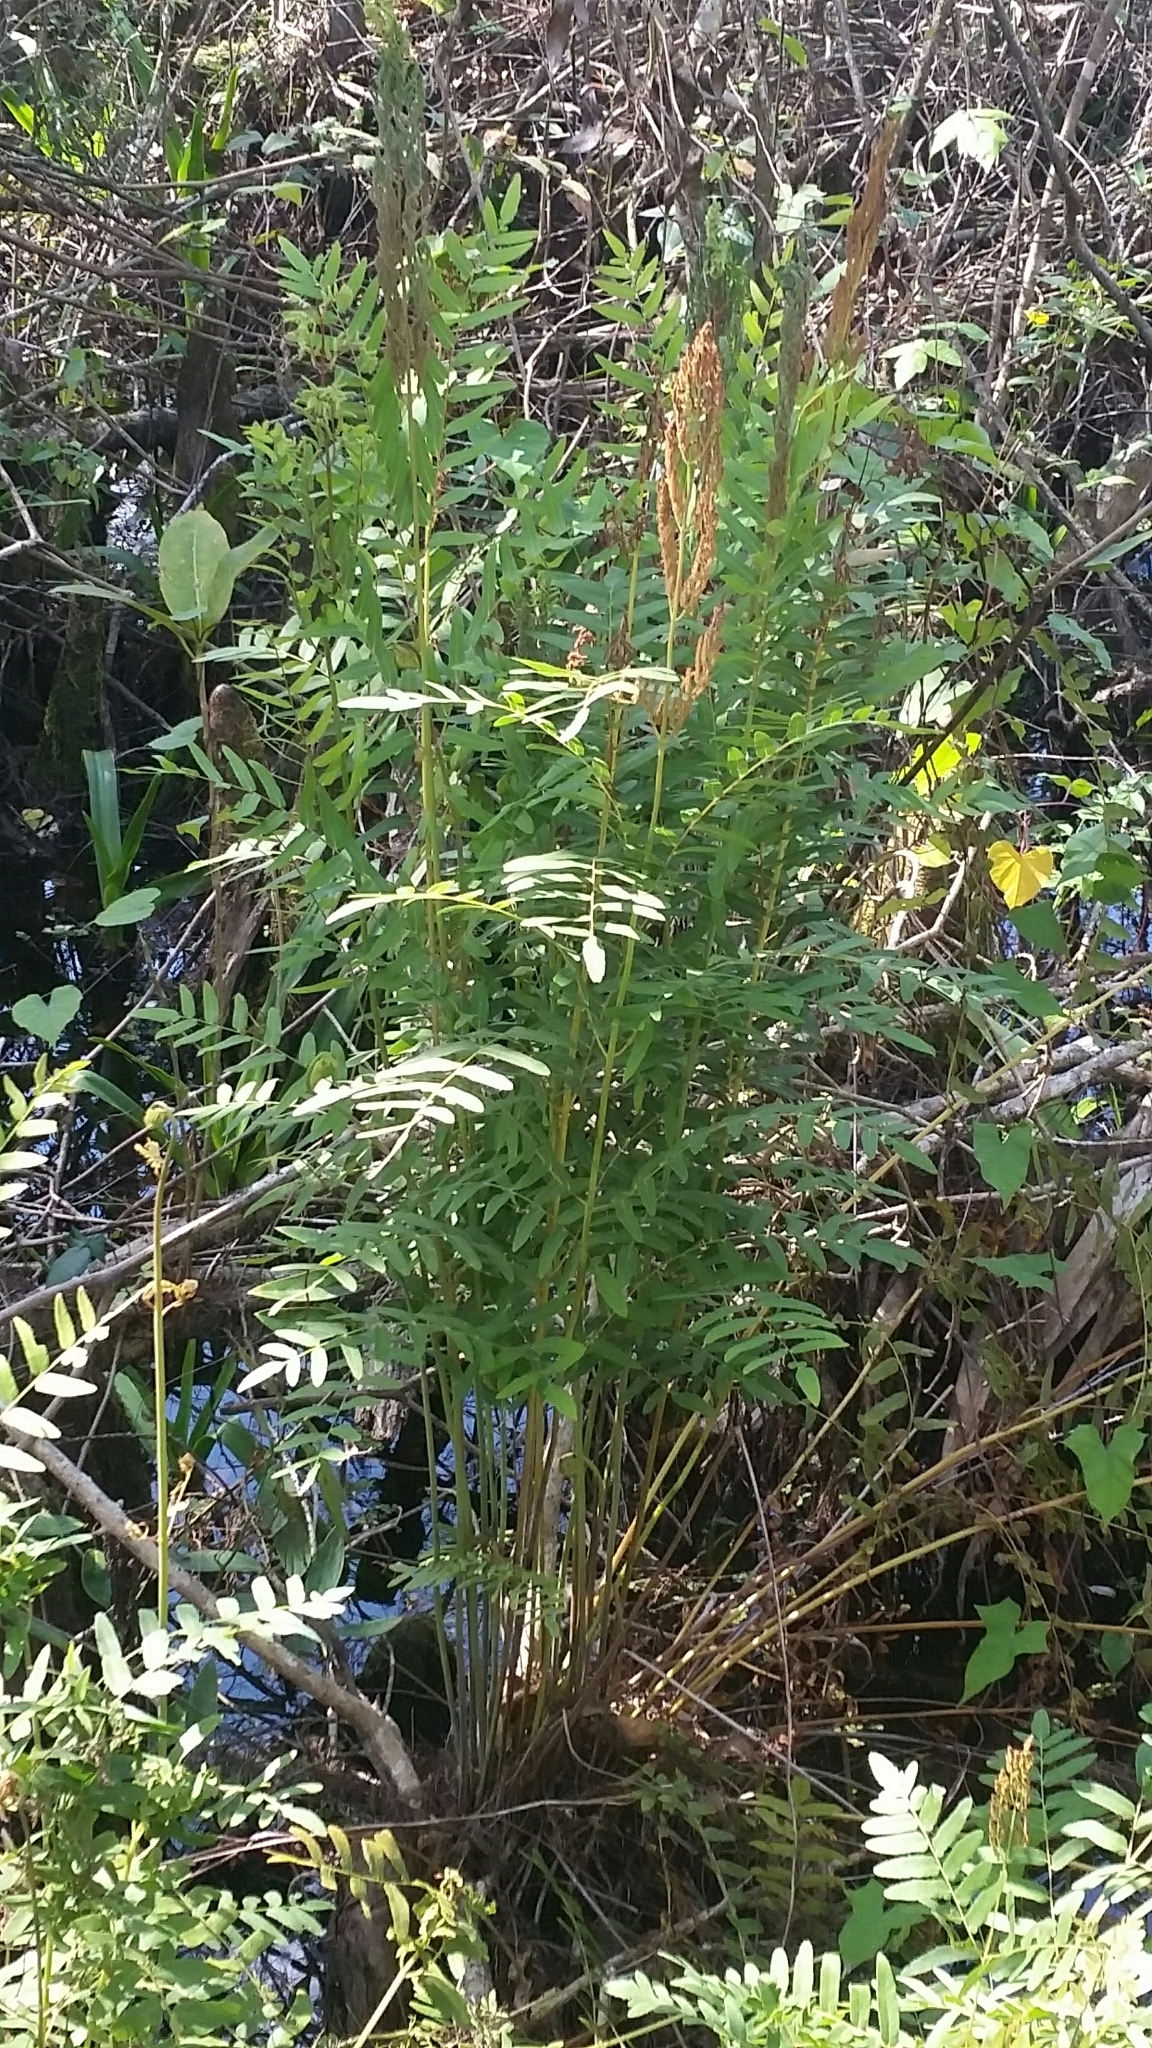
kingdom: Plantae
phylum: Tracheophyta
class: Polypodiopsida
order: Osmundales
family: Osmundaceae
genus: Osmunda
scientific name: Osmunda spectabilis
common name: American royal fern
